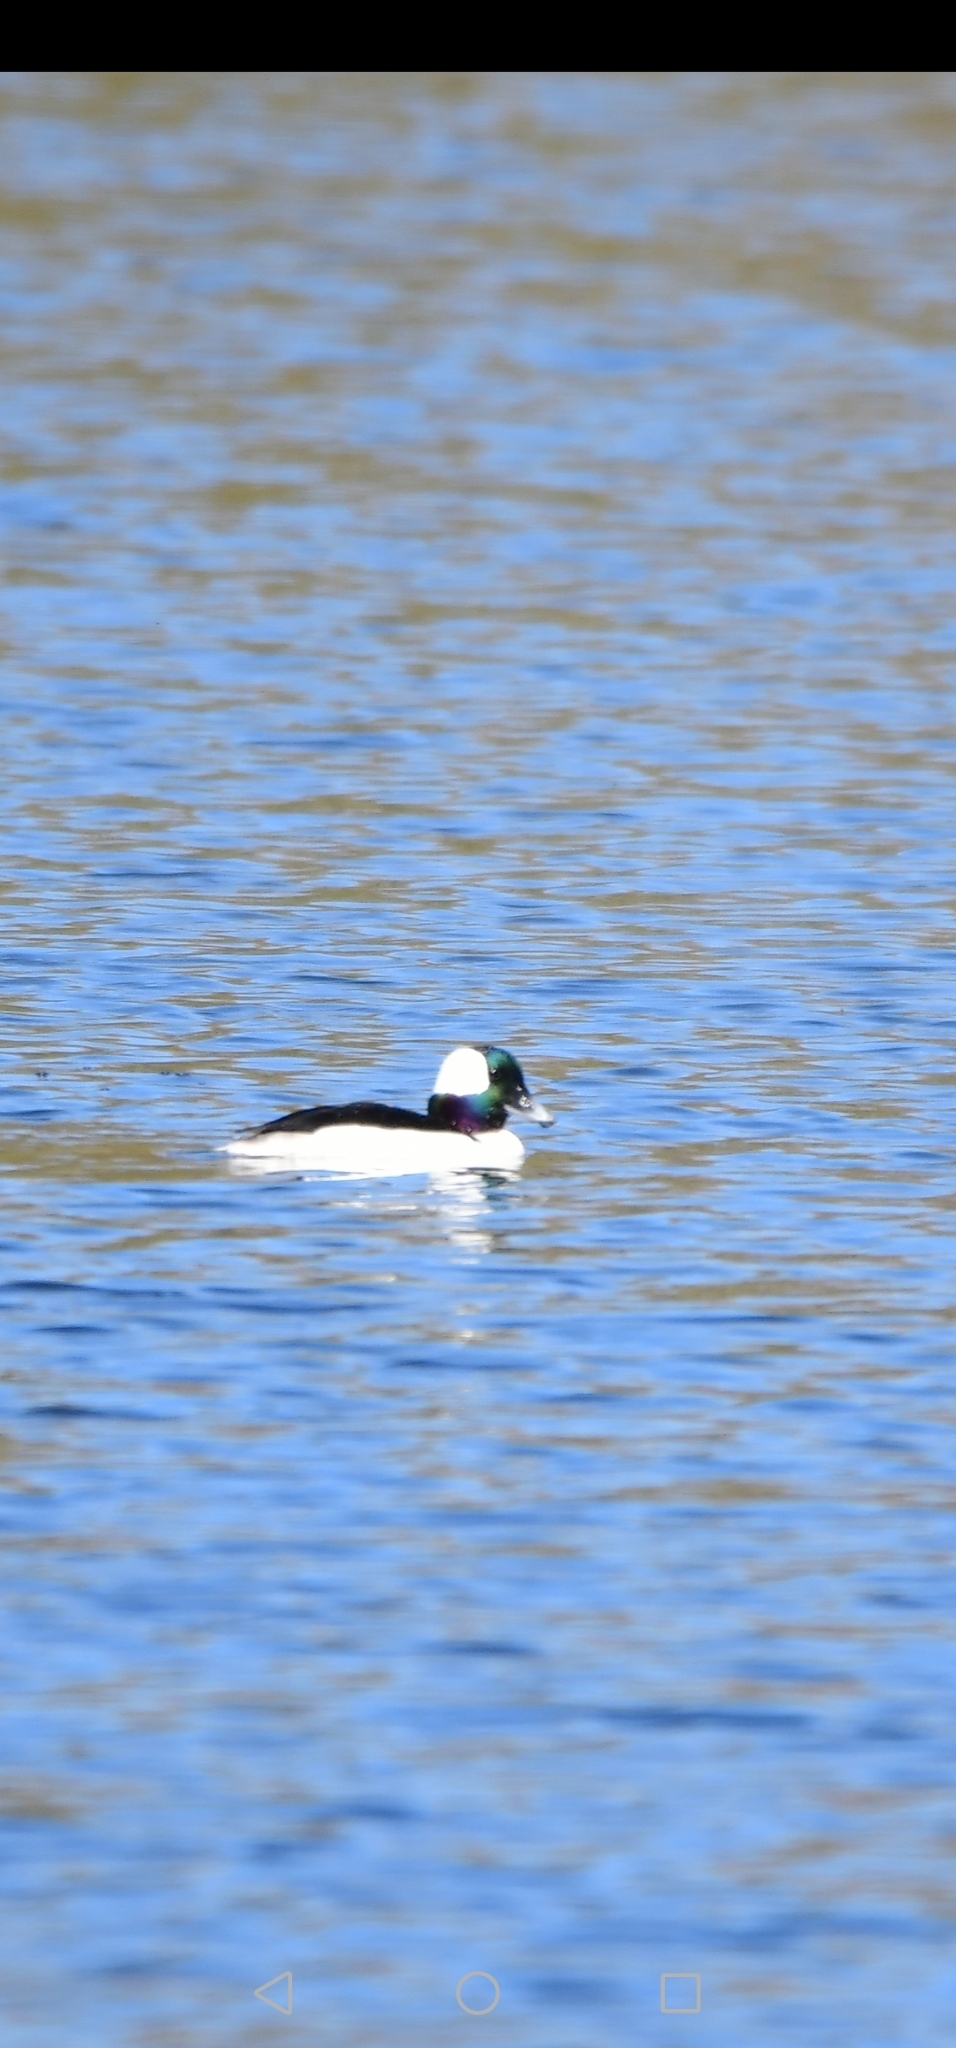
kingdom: Animalia
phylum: Chordata
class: Aves
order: Anseriformes
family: Anatidae
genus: Bucephala
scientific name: Bucephala albeola
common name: Bufflehead
